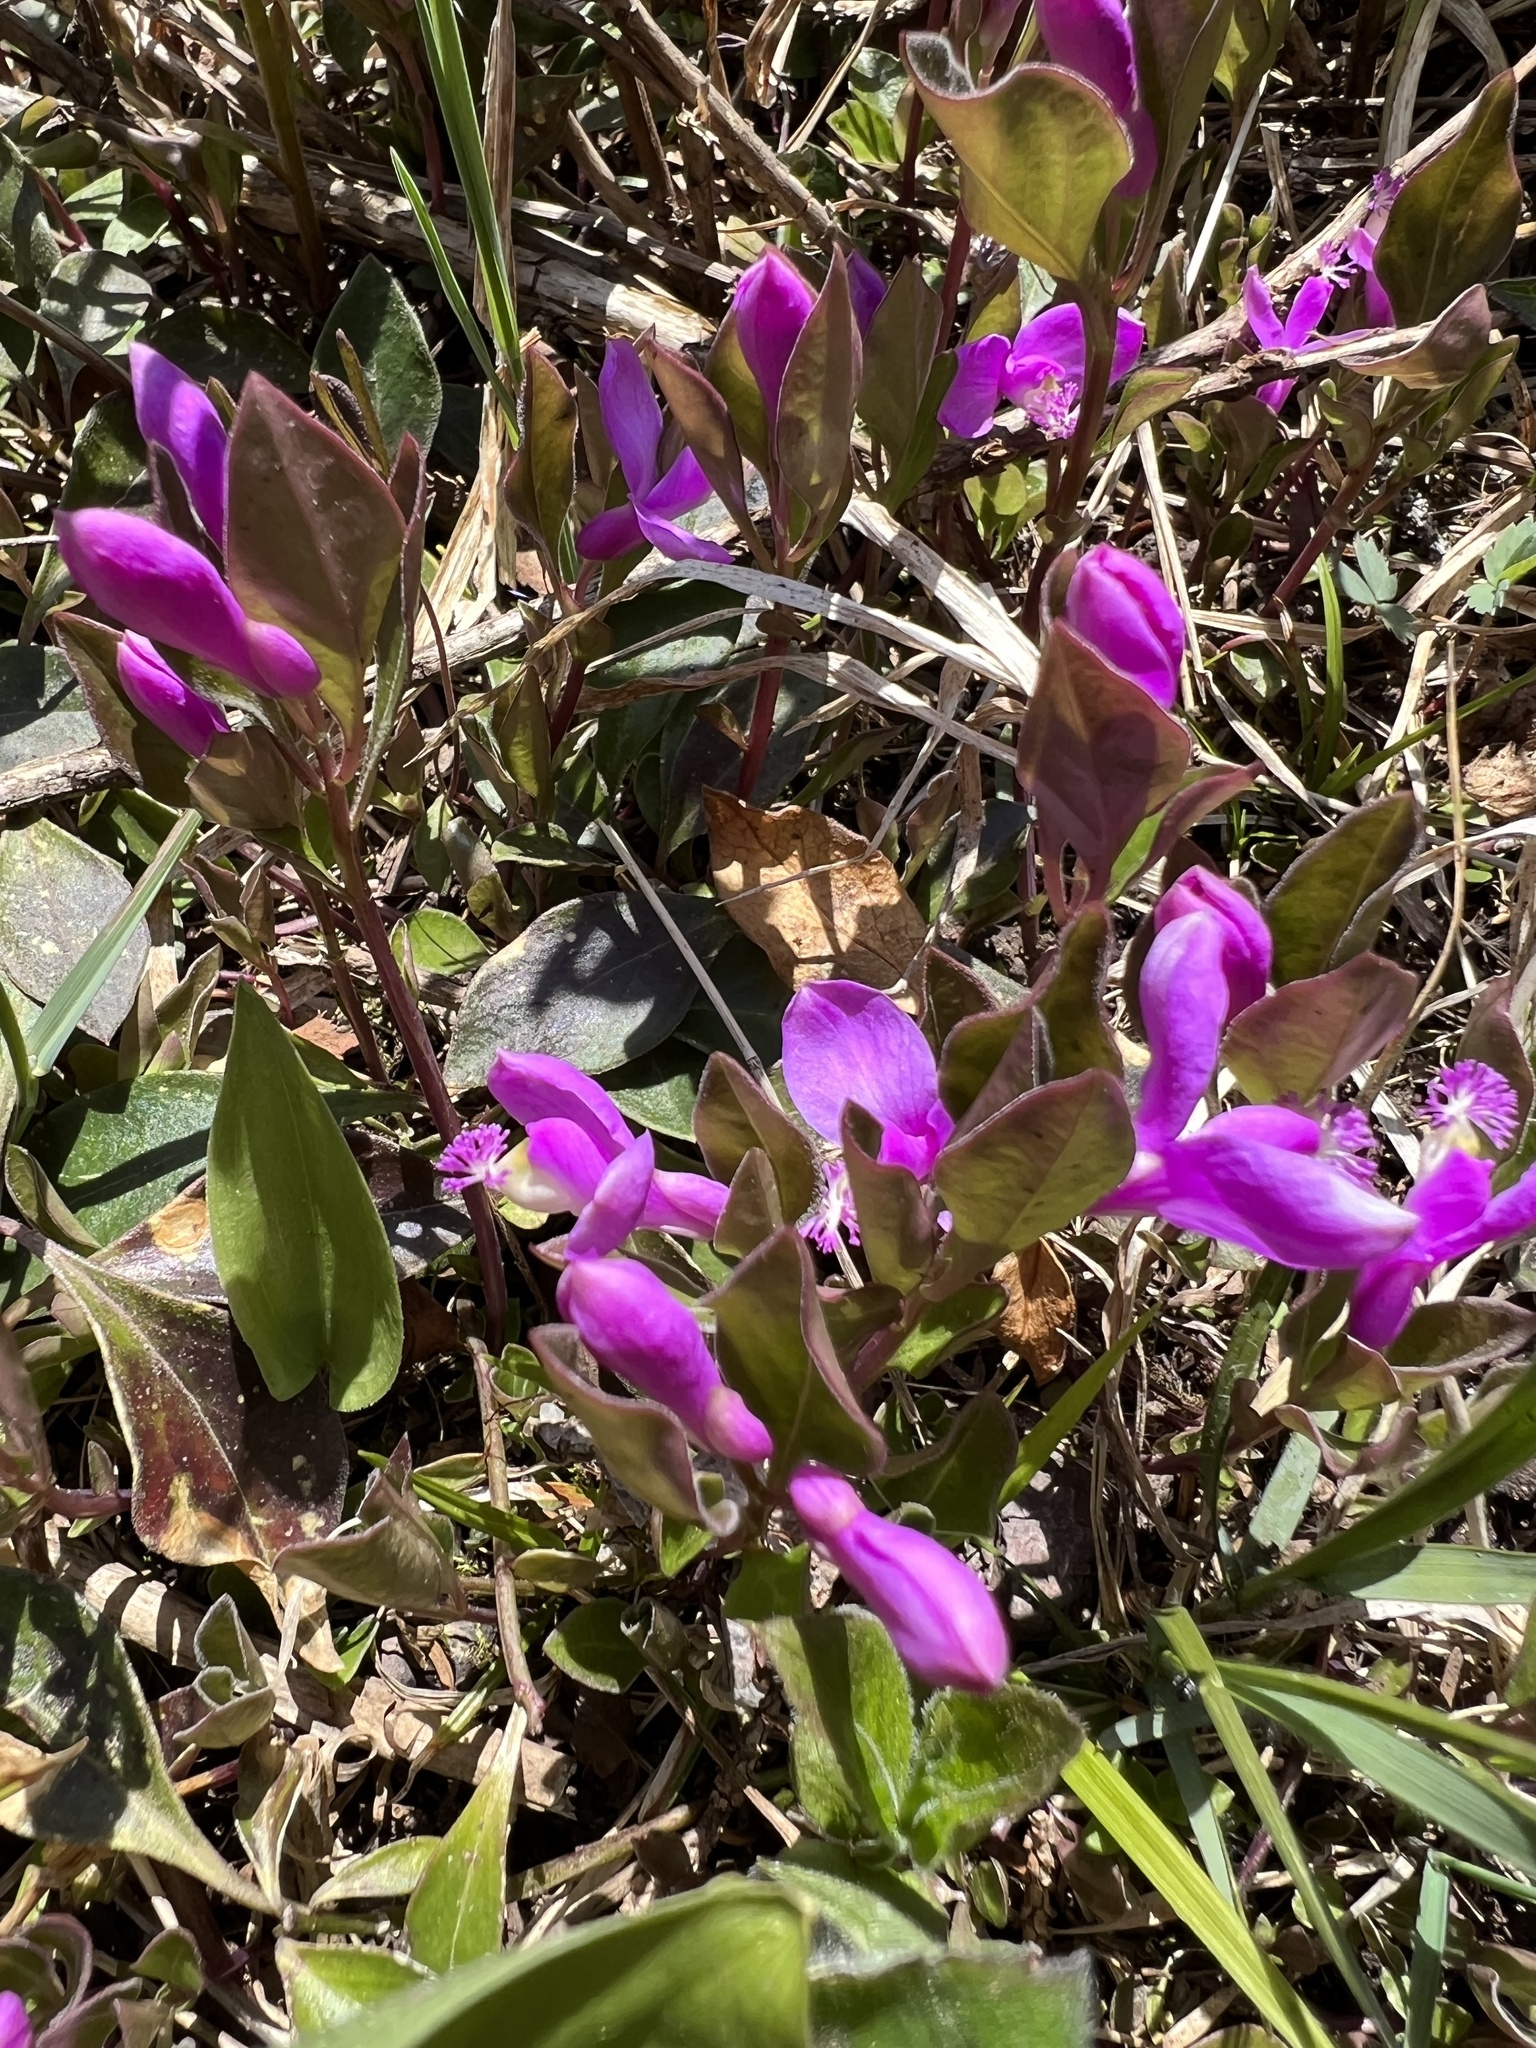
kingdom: Plantae
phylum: Tracheophyta
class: Magnoliopsida
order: Fabales
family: Polygalaceae
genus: Polygaloides
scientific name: Polygaloides paucifolia
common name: Bird-on-the-wing
